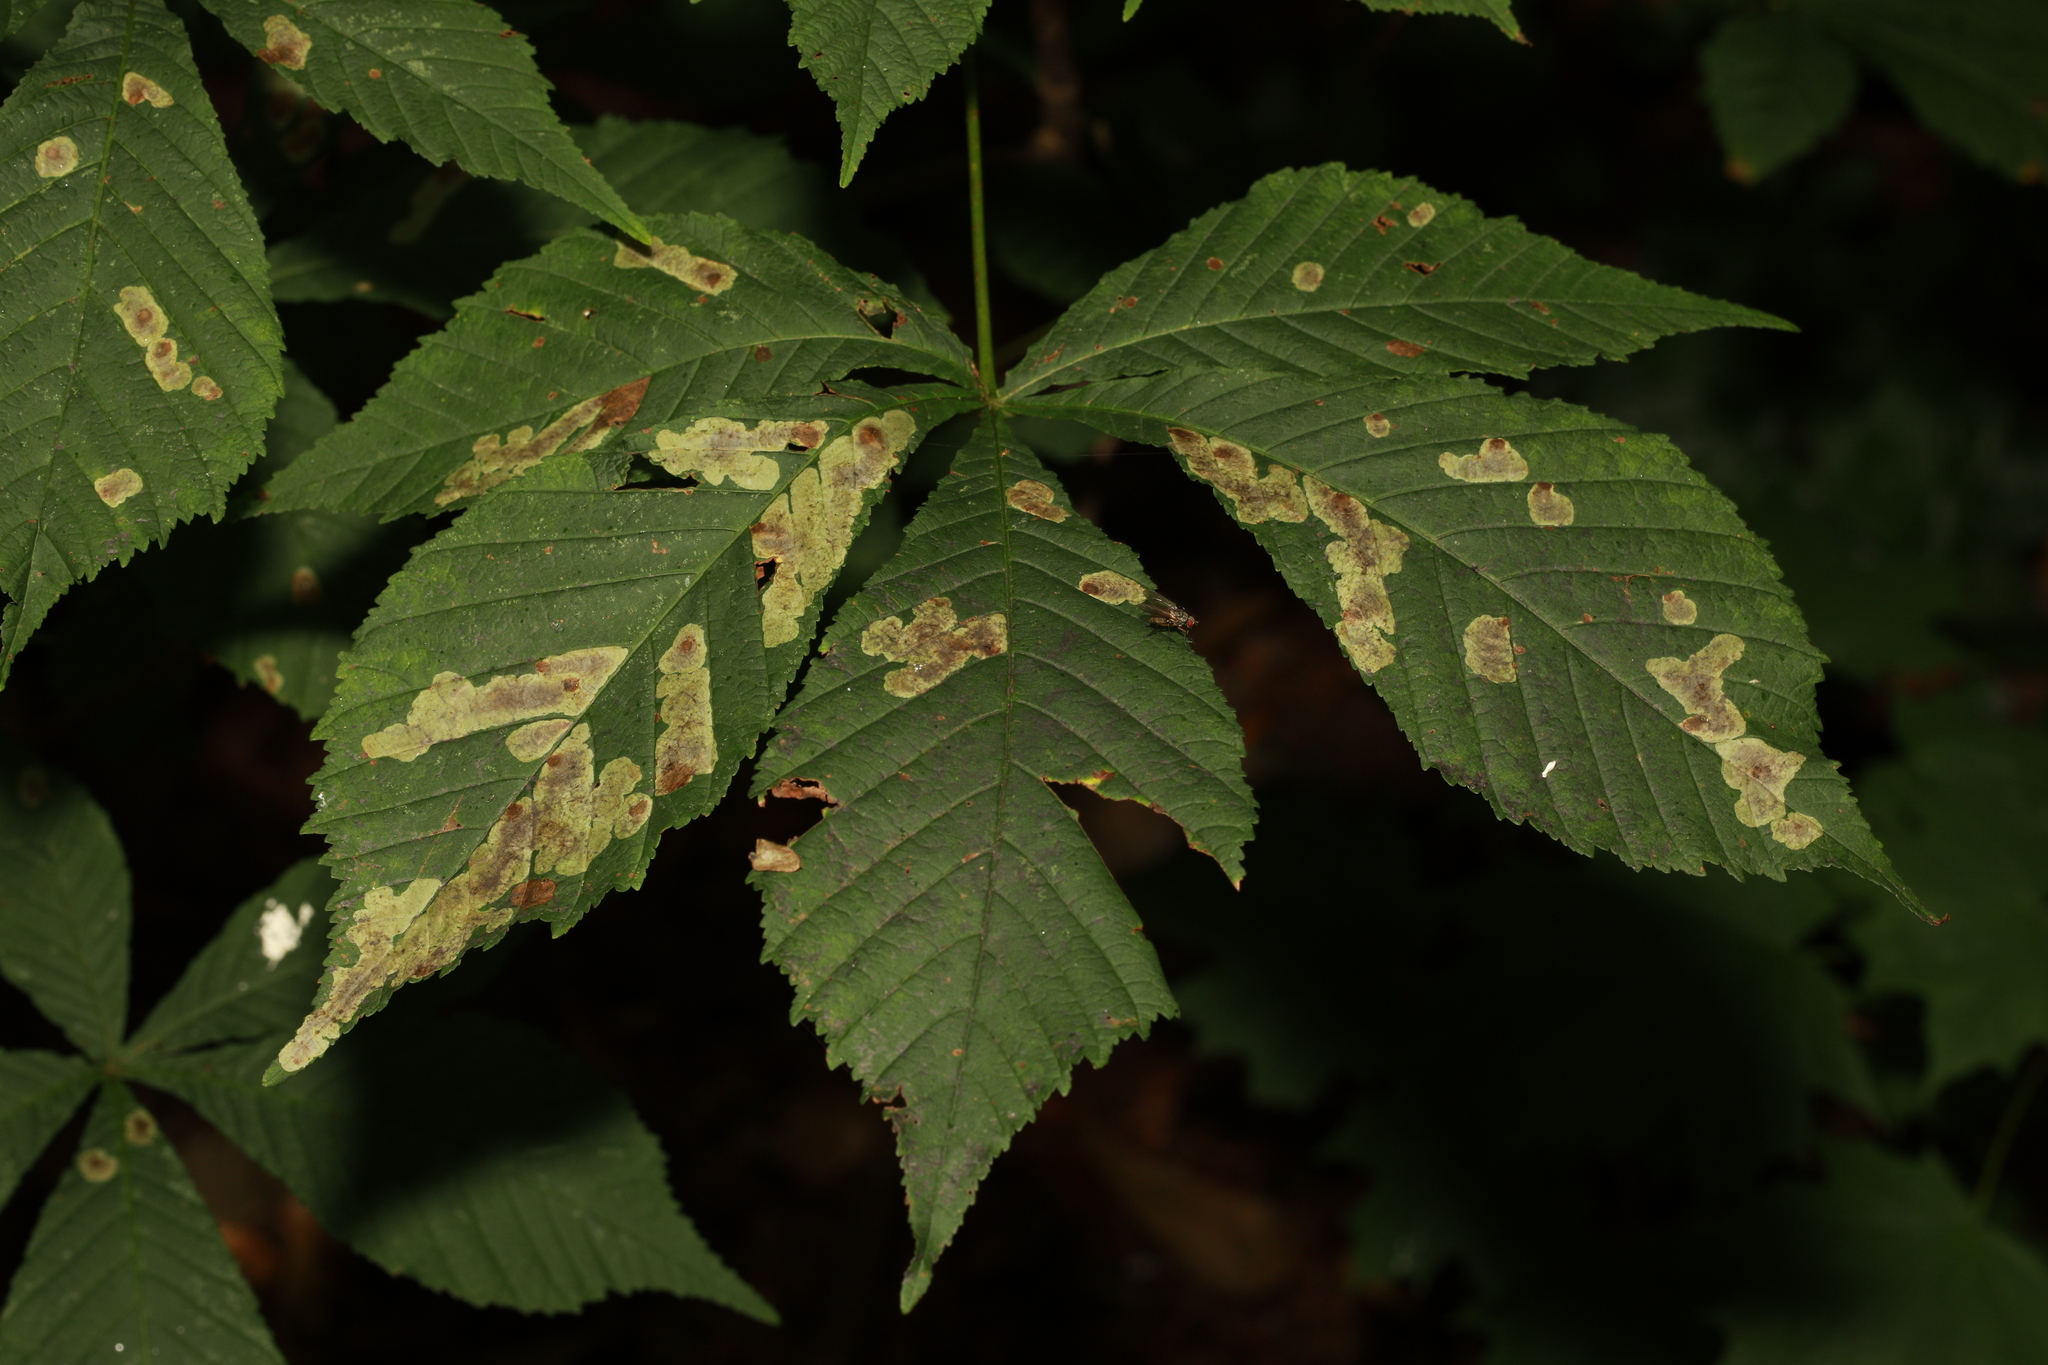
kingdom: Plantae
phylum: Tracheophyta
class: Magnoliopsida
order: Sapindales
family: Sapindaceae
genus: Aesculus
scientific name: Aesculus hippocastanum
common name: Horse-chestnut
